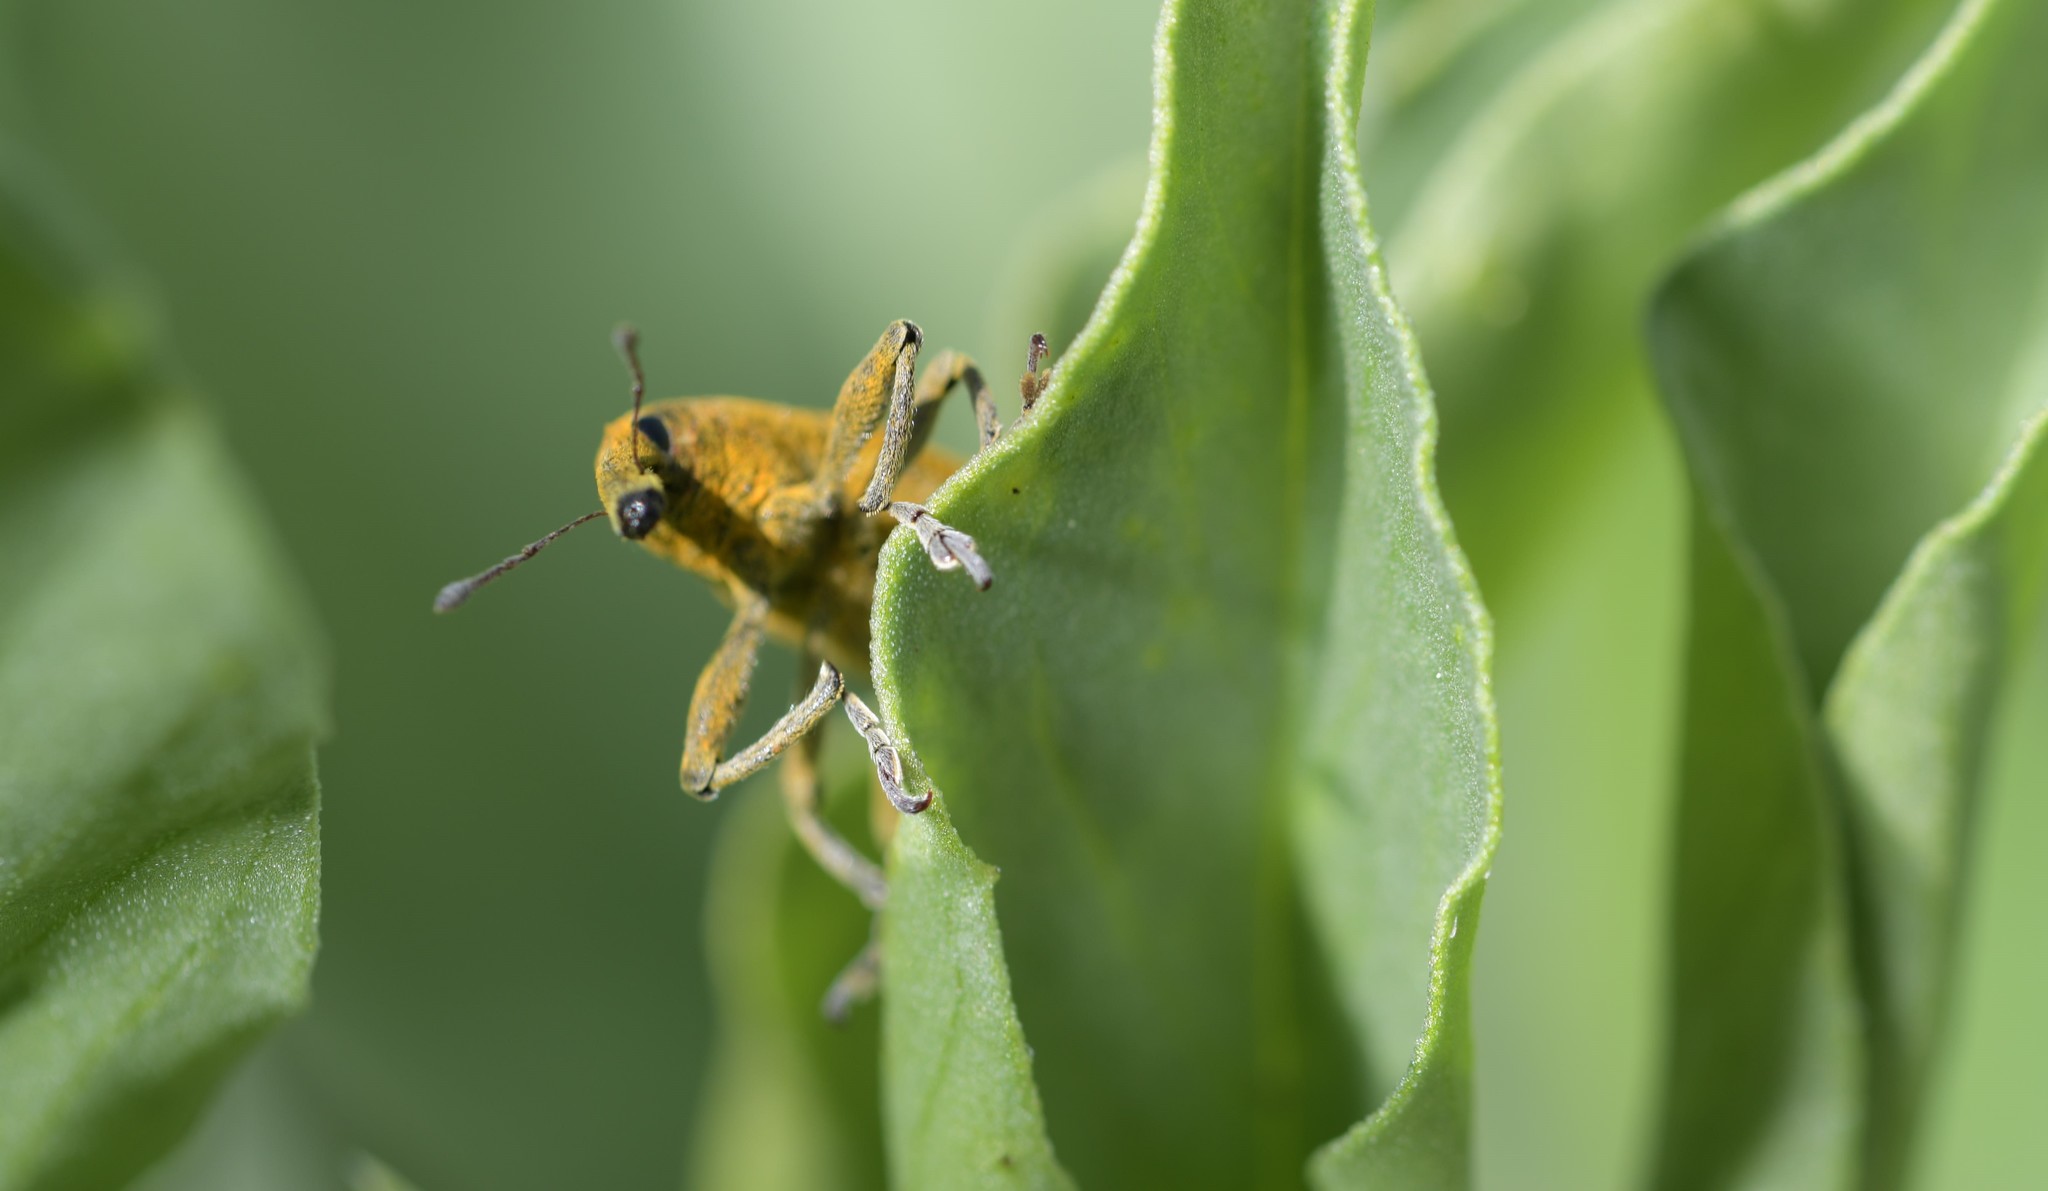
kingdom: Animalia
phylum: Arthropoda
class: Insecta
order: Coleoptera
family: Curculionidae
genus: Lixus
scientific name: Lixus pulverulentus
